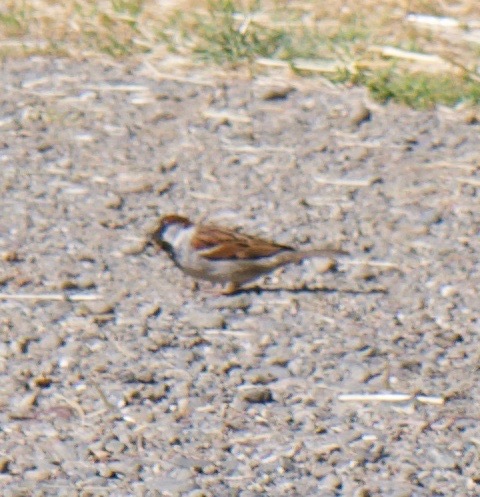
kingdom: Animalia
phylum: Chordata
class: Aves
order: Passeriformes
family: Passeridae
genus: Passer
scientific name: Passer domesticus
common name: House sparrow
